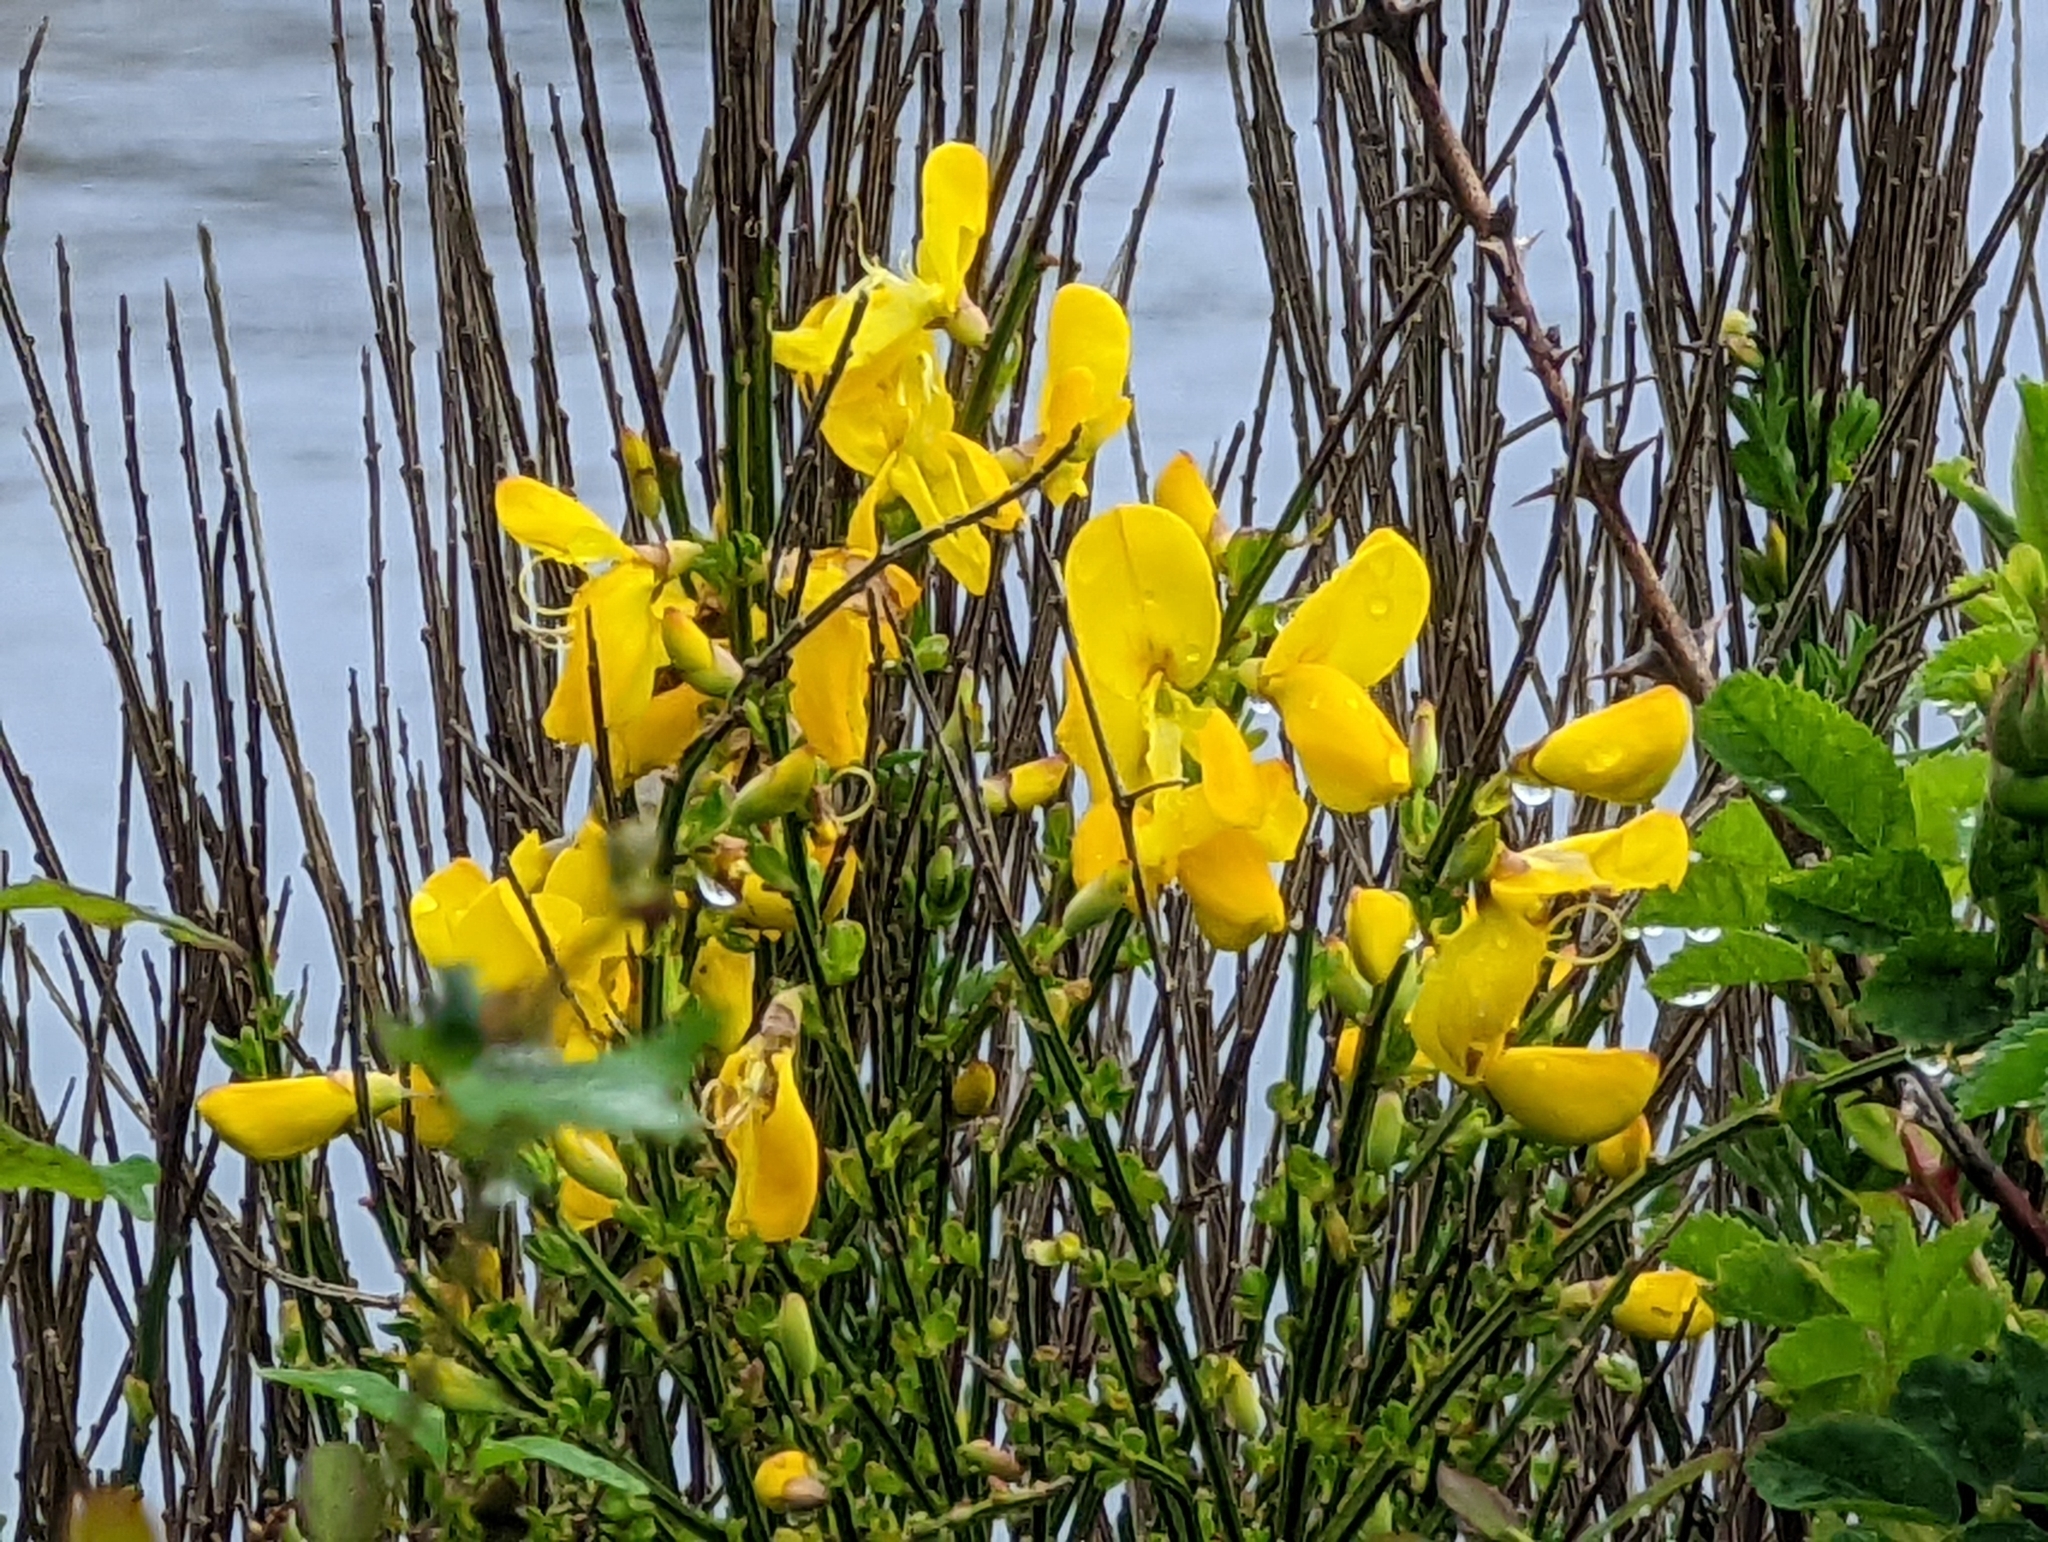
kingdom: Plantae
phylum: Tracheophyta
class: Magnoliopsida
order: Fabales
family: Fabaceae
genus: Cytisus
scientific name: Cytisus scoparius
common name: Scotch broom
